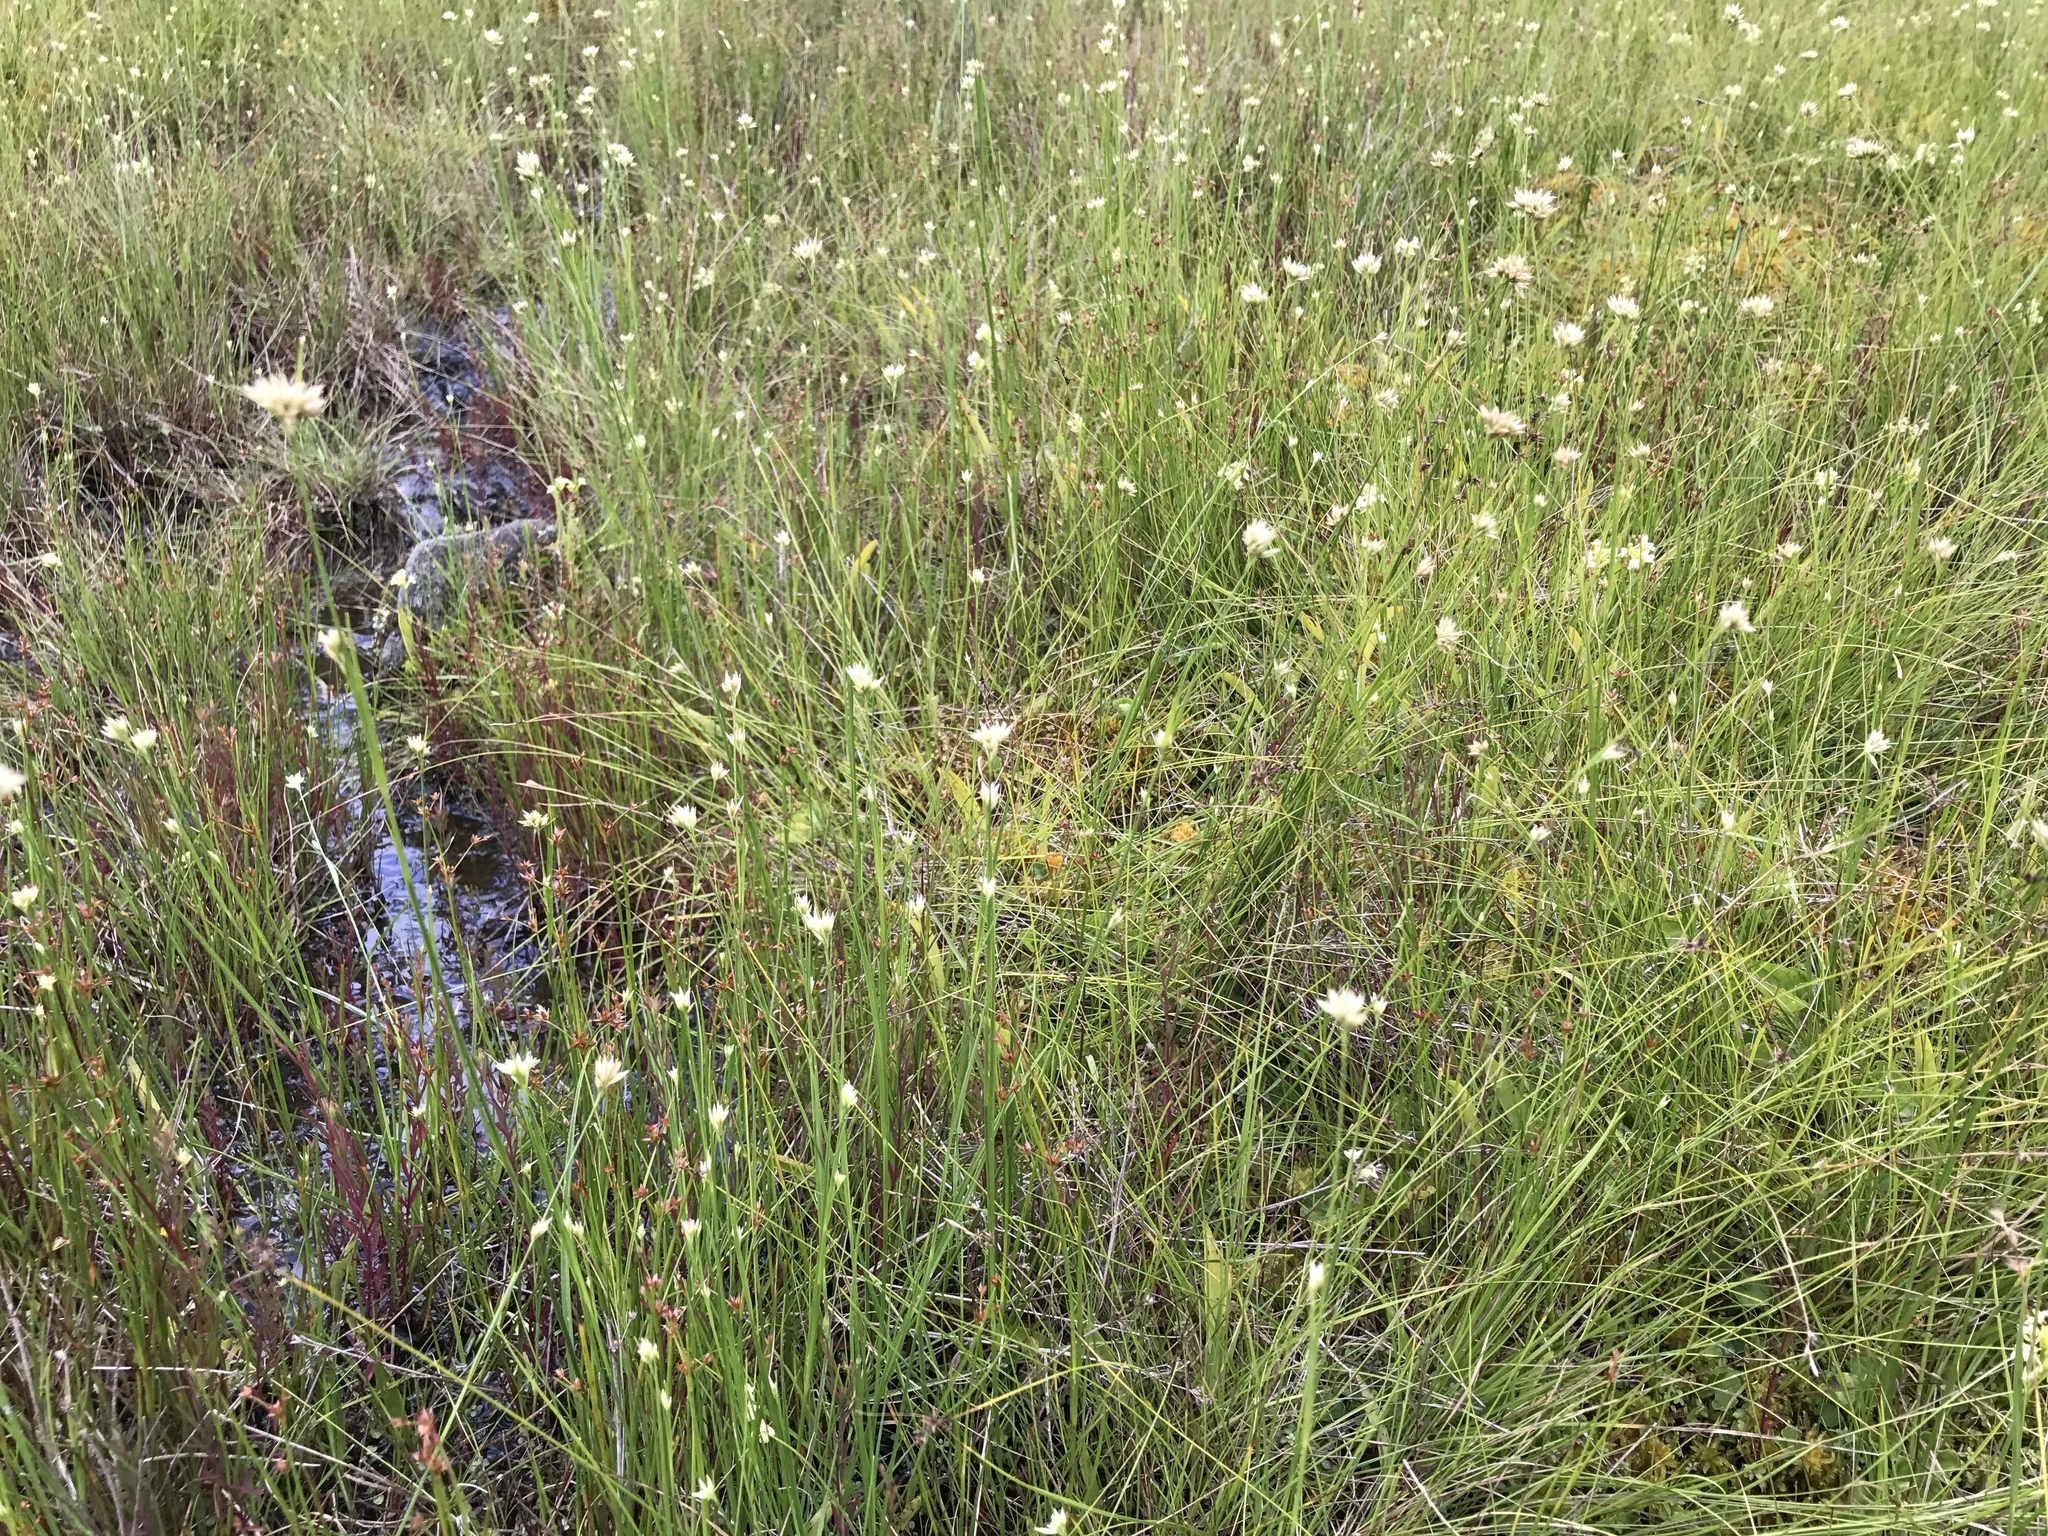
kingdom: Plantae
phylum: Tracheophyta
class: Liliopsida
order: Poales
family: Cyperaceae
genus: Rhynchospora
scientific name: Rhynchospora alba
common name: White beak-sedge
